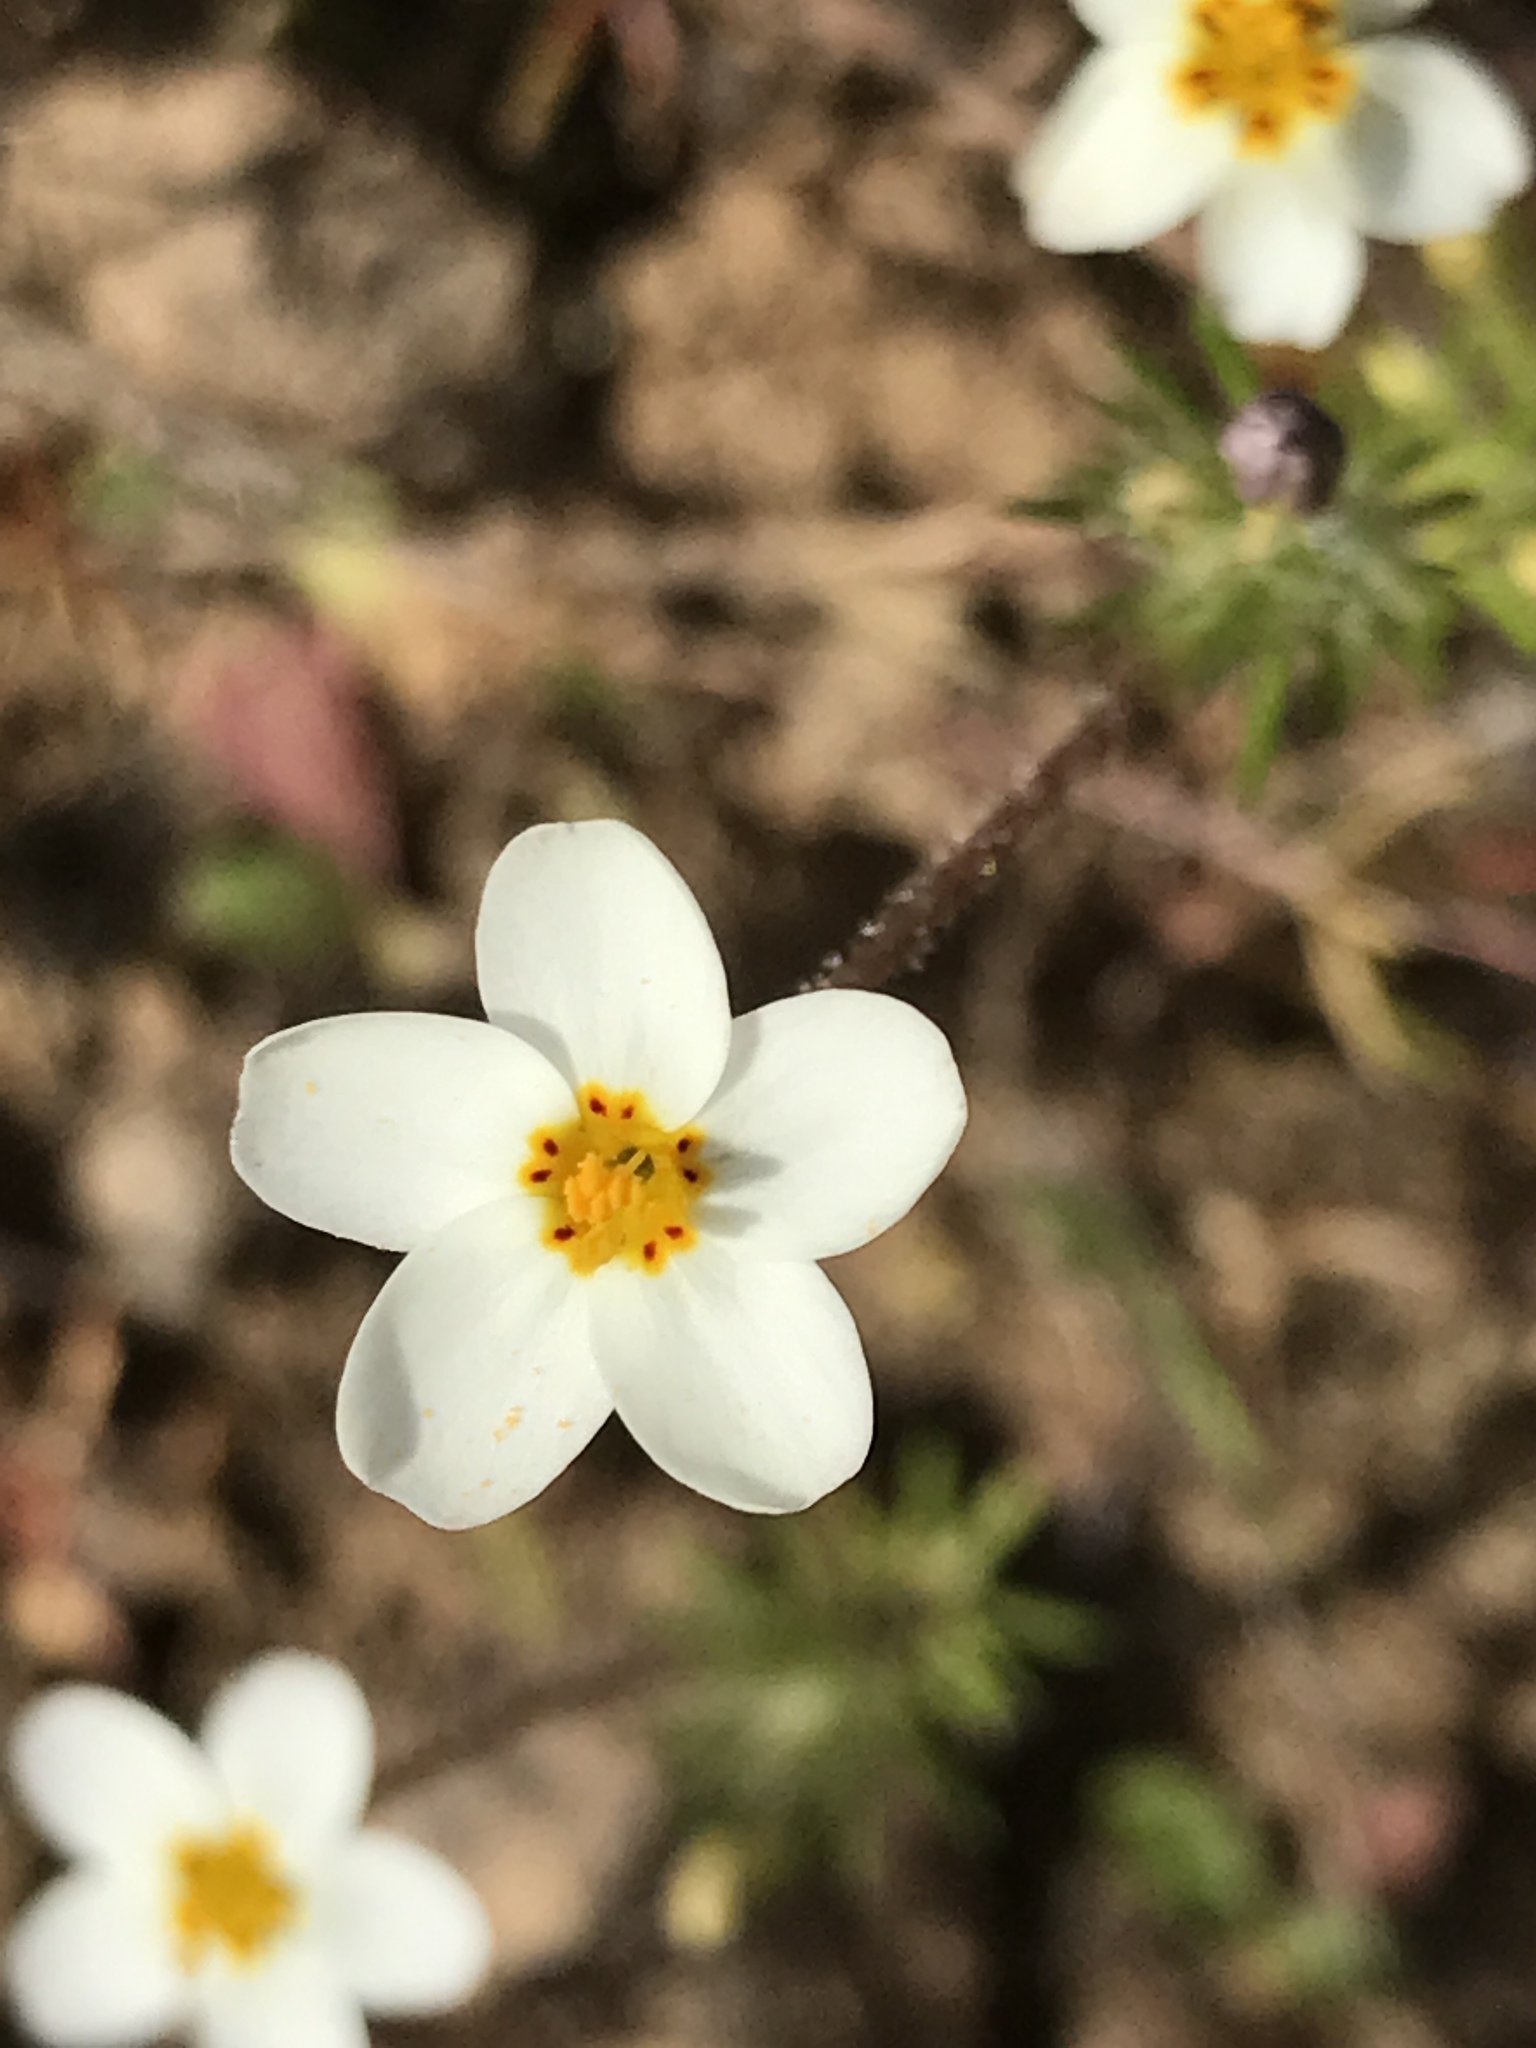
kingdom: Plantae
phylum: Tracheophyta
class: Magnoliopsida
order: Ericales
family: Polemoniaceae
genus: Leptosiphon
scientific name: Leptosiphon parviflorus
